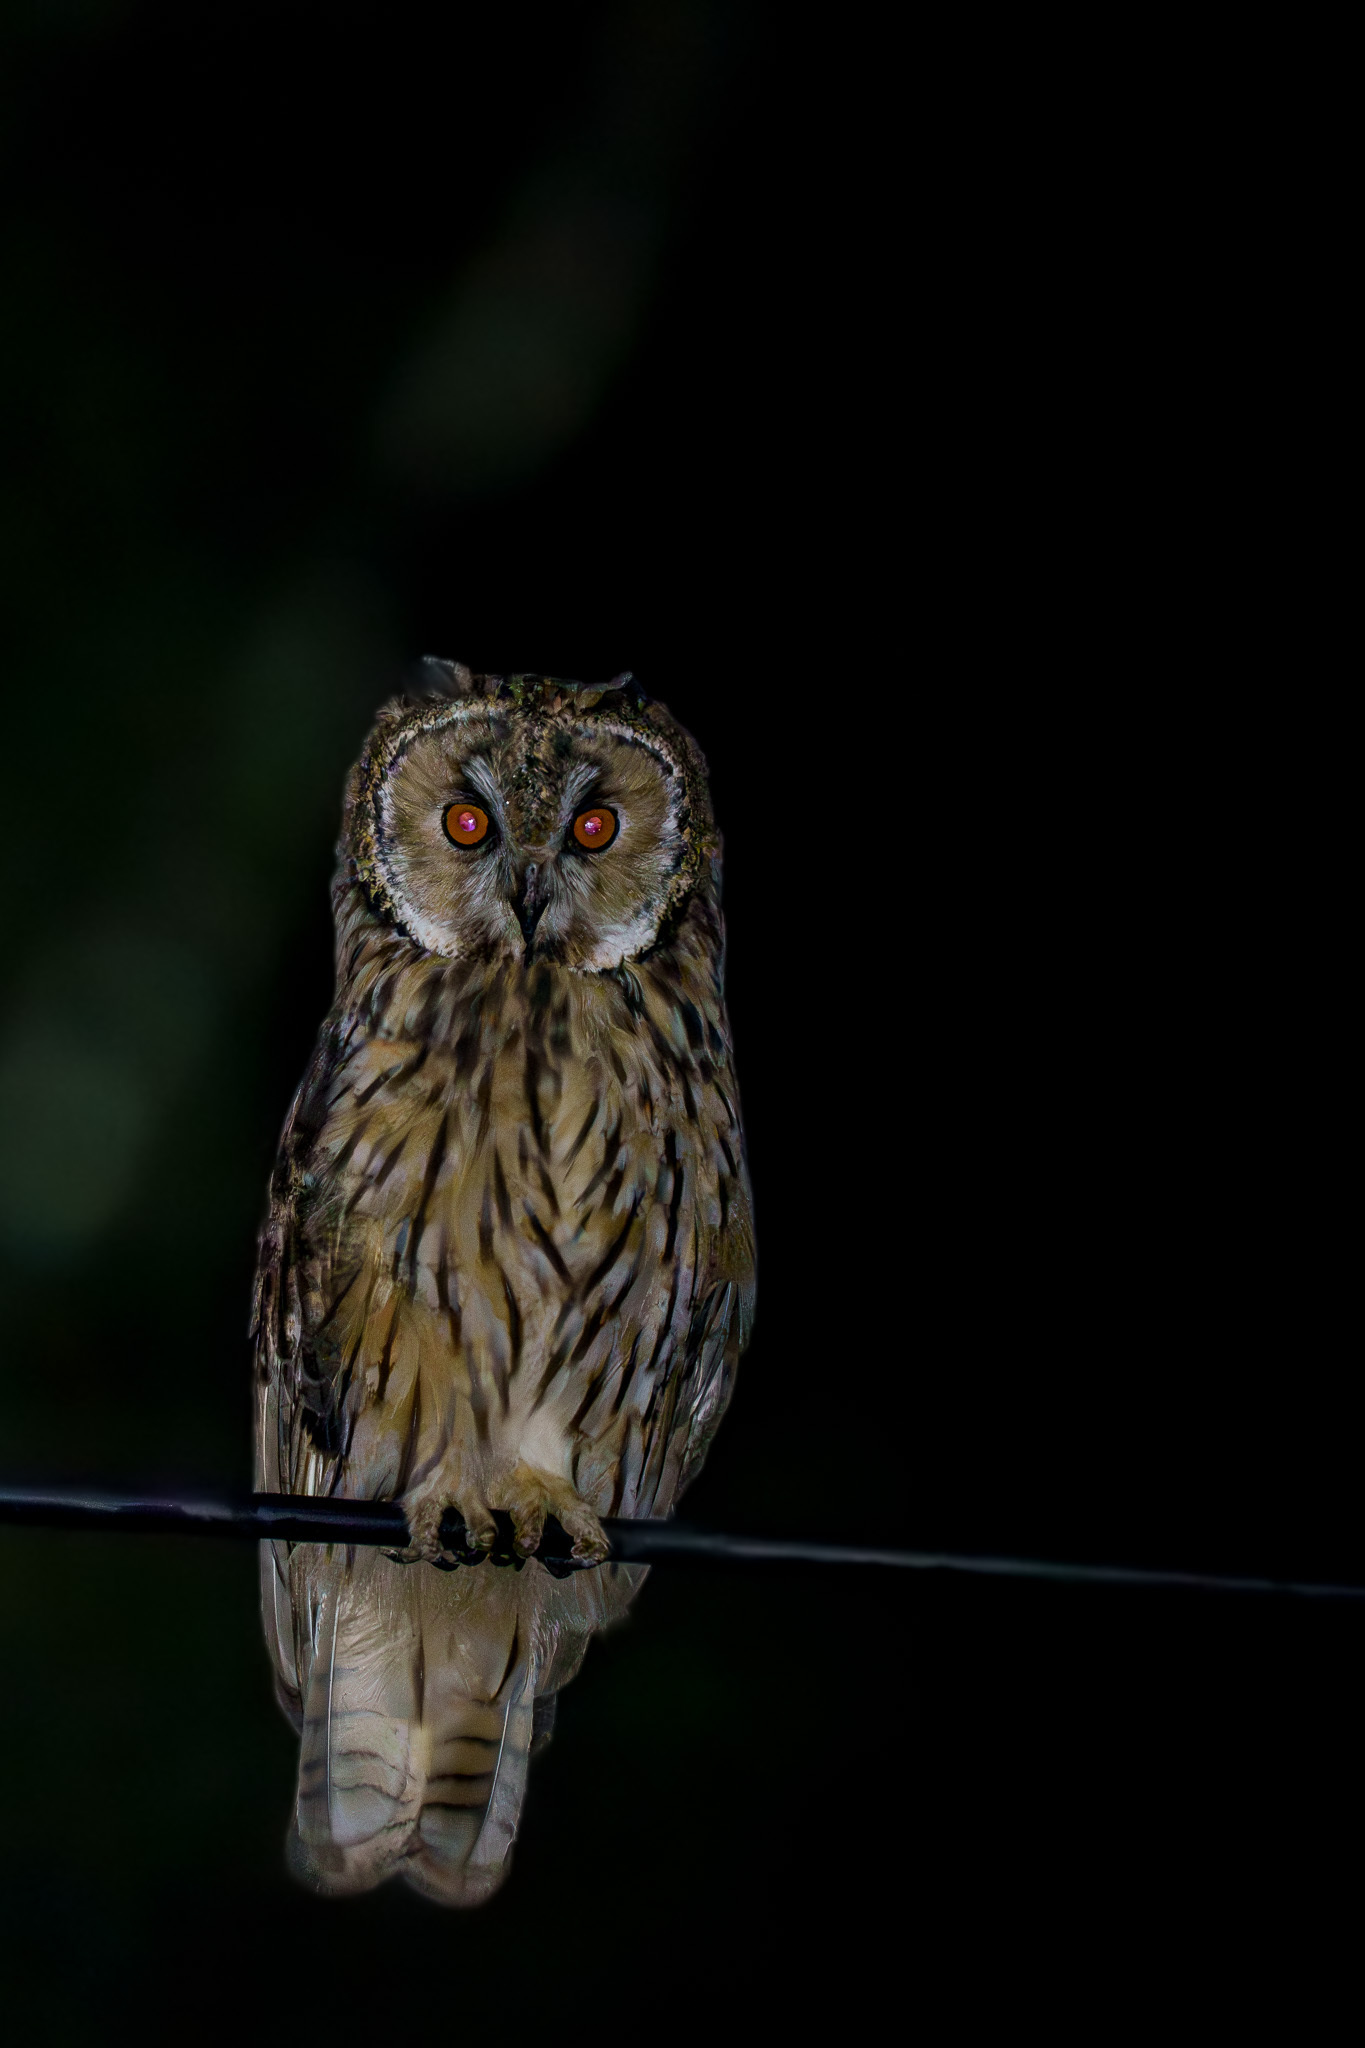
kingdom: Animalia
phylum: Chordata
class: Aves
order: Strigiformes
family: Strigidae
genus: Asio
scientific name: Asio otus
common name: Long-eared owl
